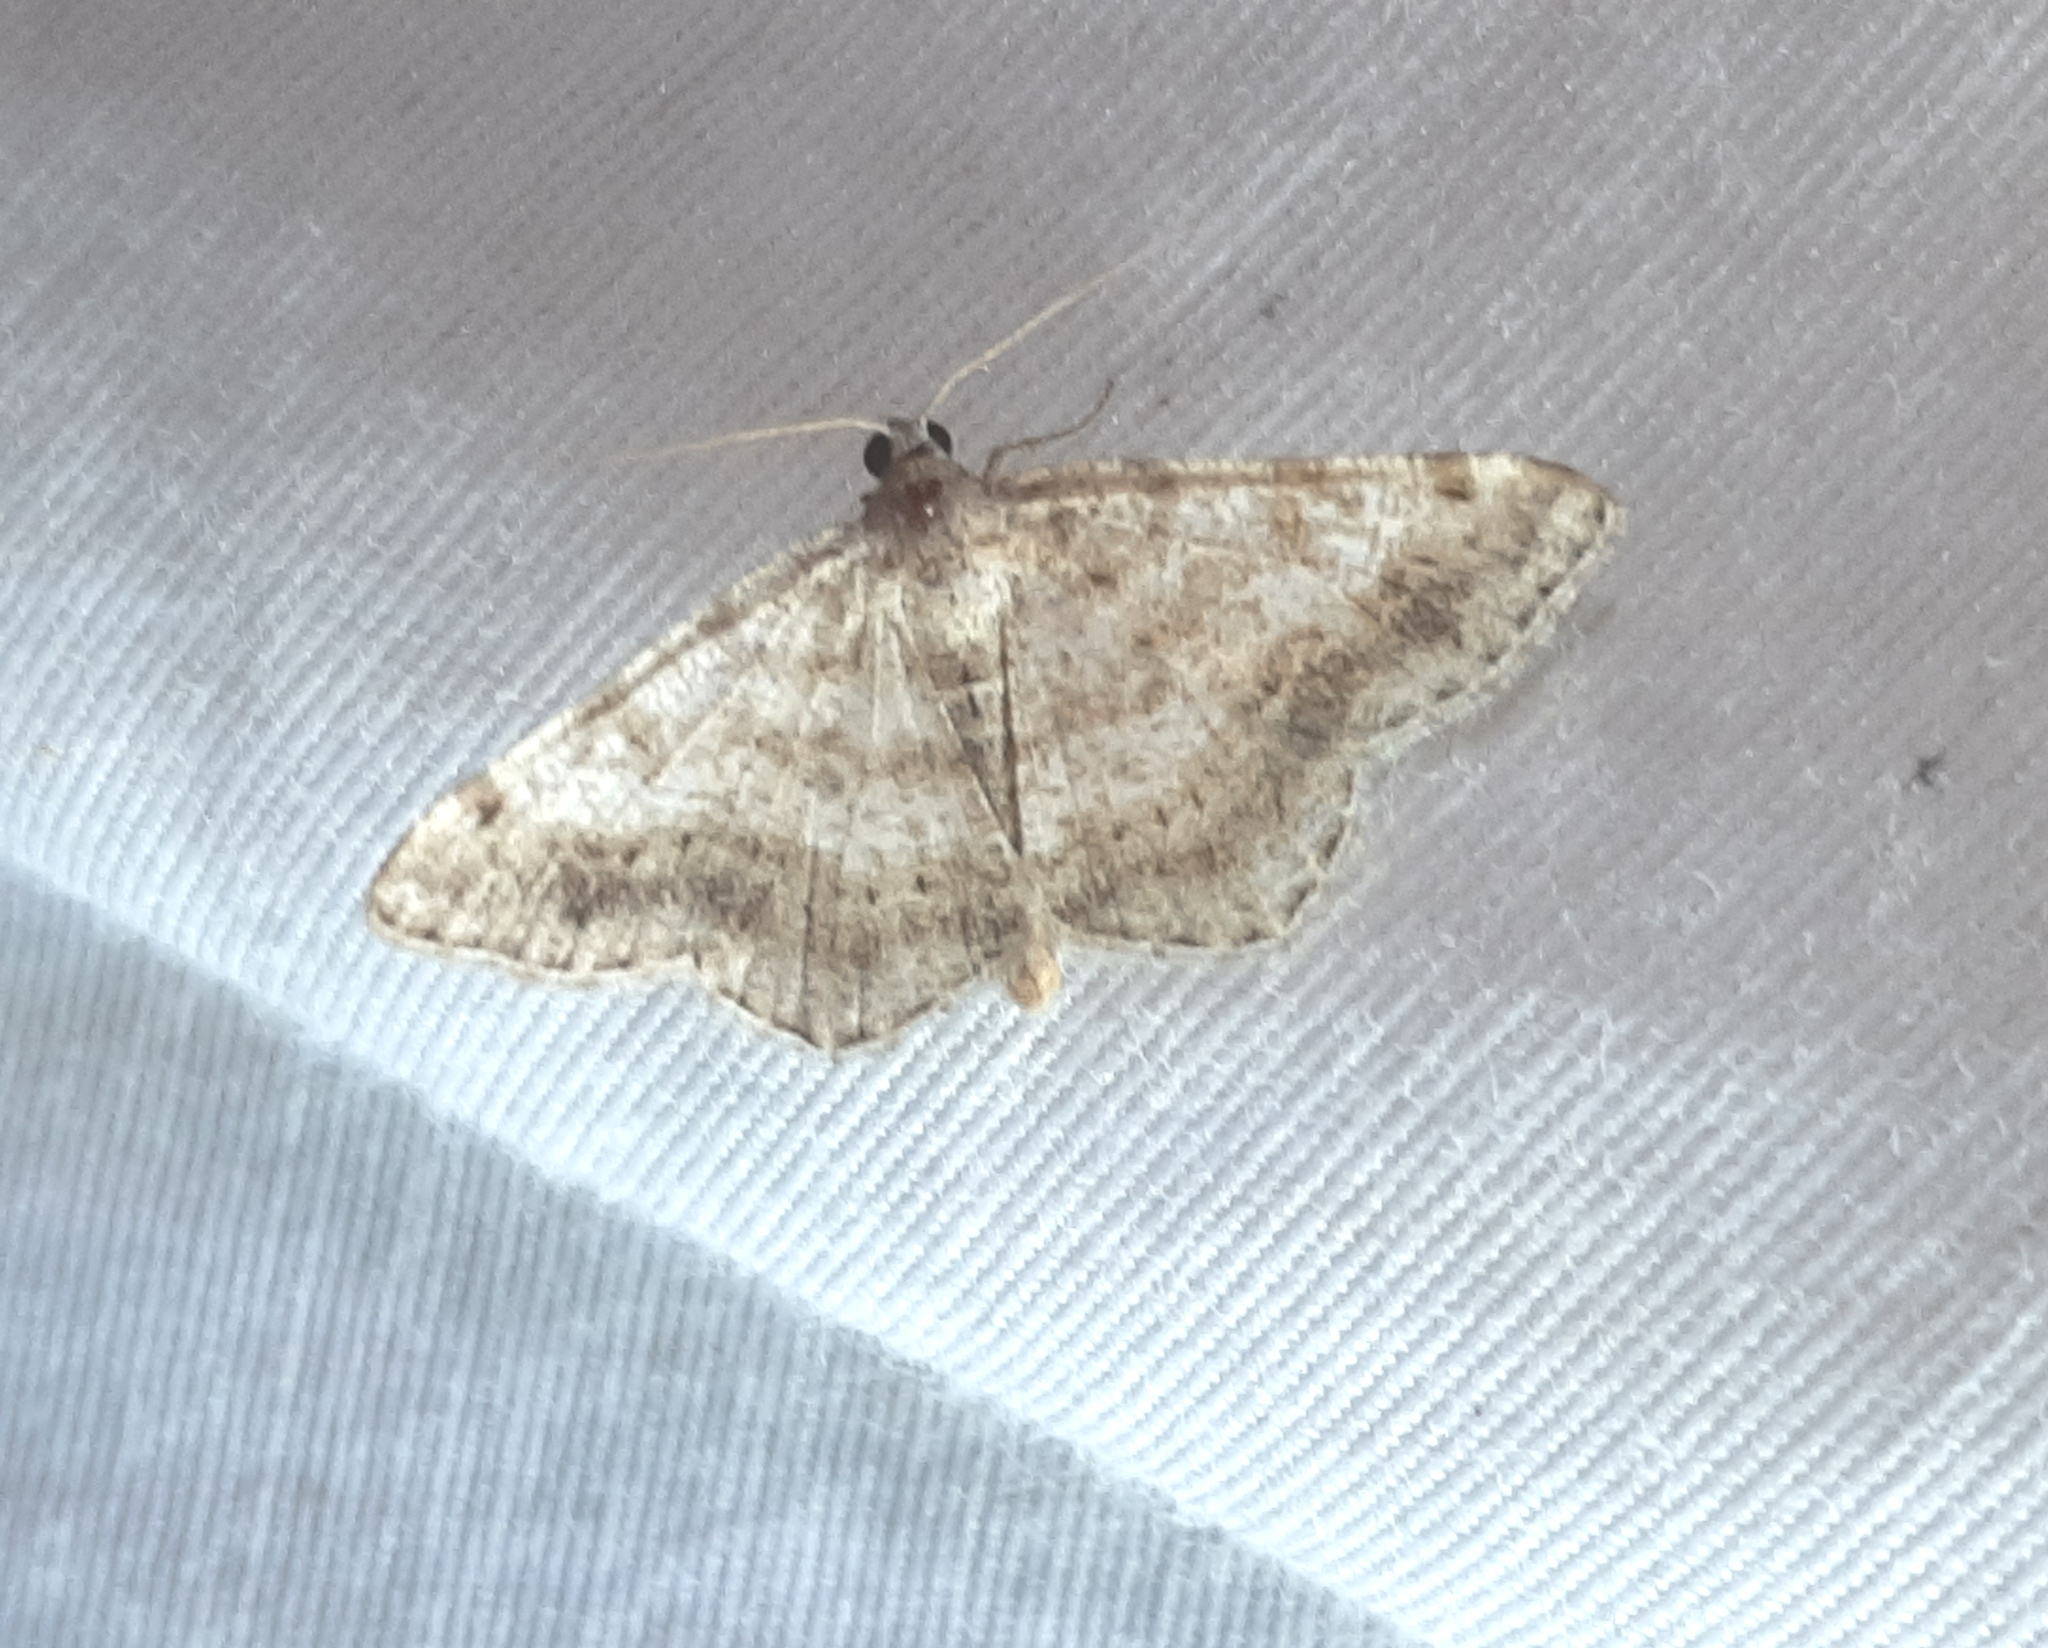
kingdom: Animalia
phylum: Arthropoda
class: Insecta
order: Lepidoptera
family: Geometridae
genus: Digrammia
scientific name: Digrammia ocellinata
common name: Faint-spotted angle
